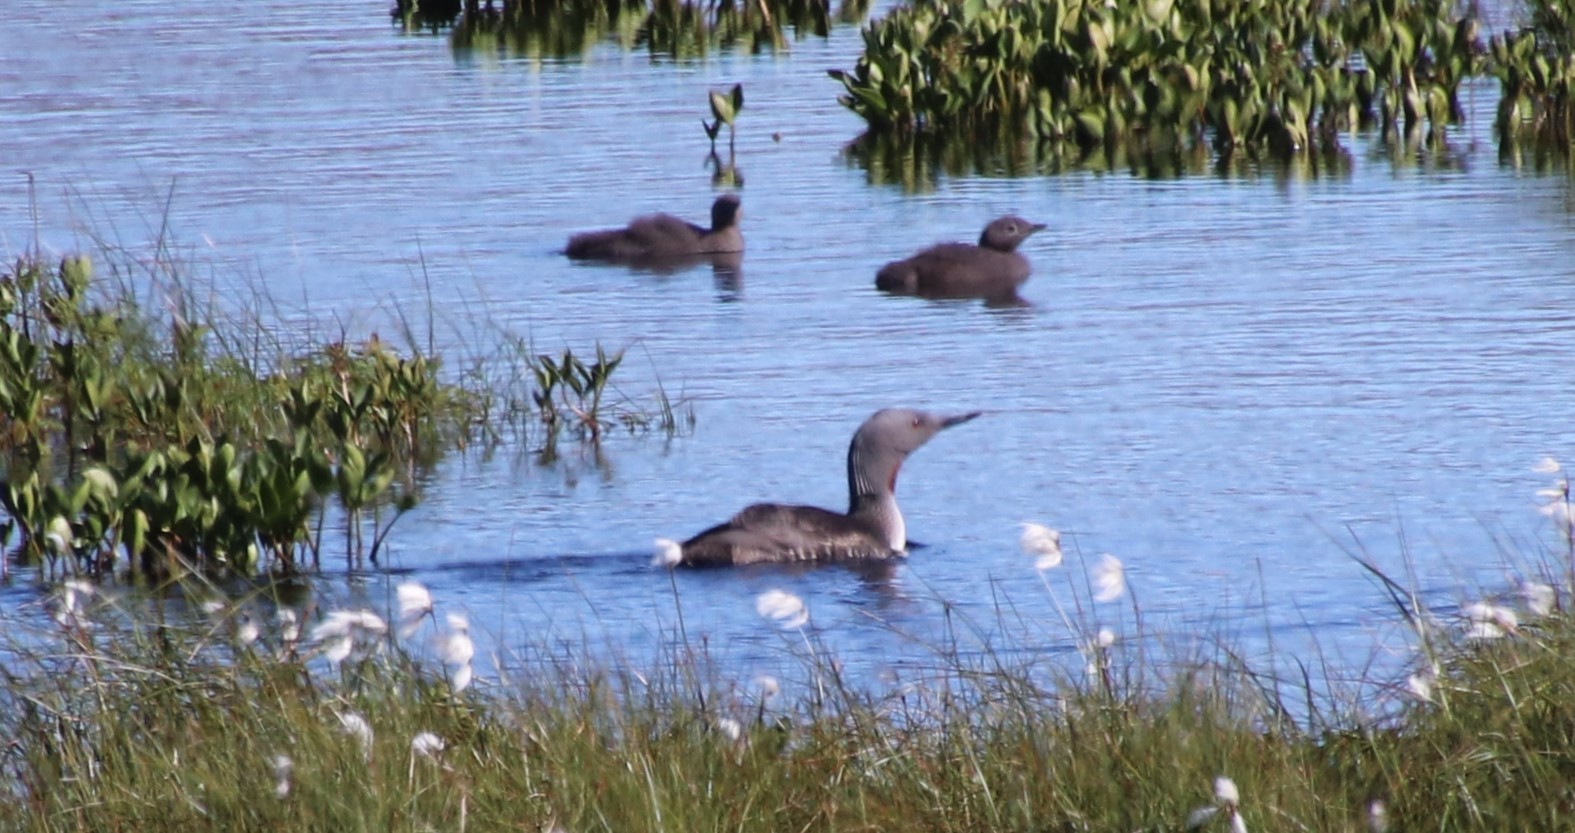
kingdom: Animalia
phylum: Chordata
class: Aves
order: Gaviiformes
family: Gaviidae
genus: Gavia
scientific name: Gavia stellata
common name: Red-throated loon
